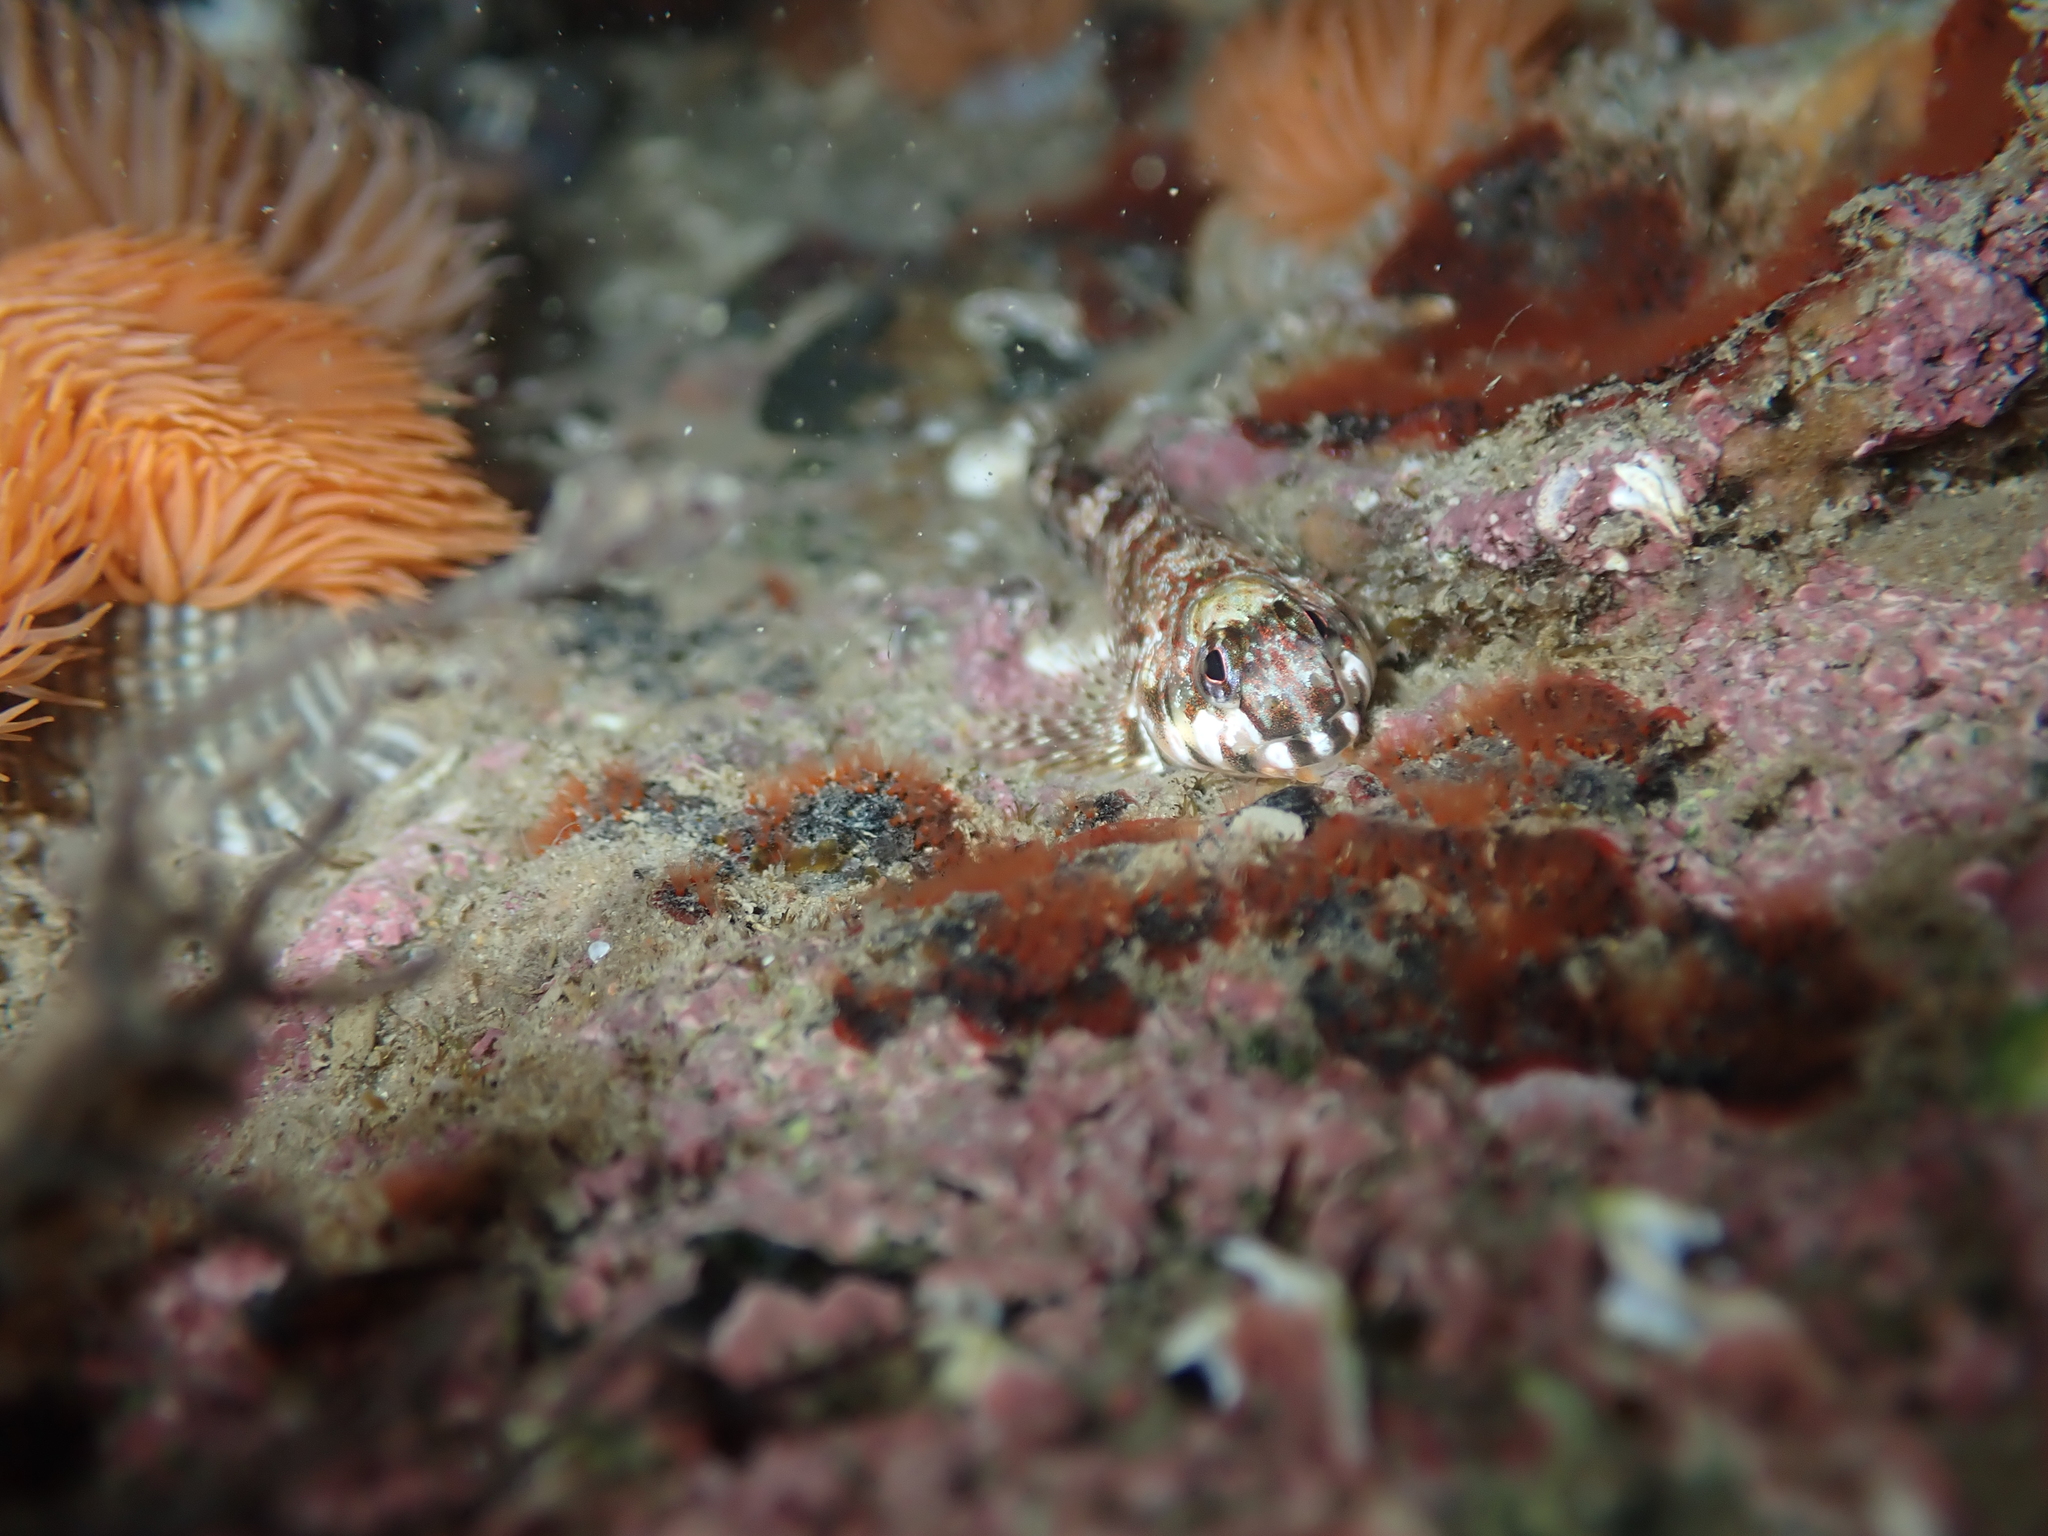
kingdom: Animalia
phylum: Chordata
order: Perciformes
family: Tripterygiidae
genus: Bellapiscis
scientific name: Bellapiscis lesleyae
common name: Mottled twister
